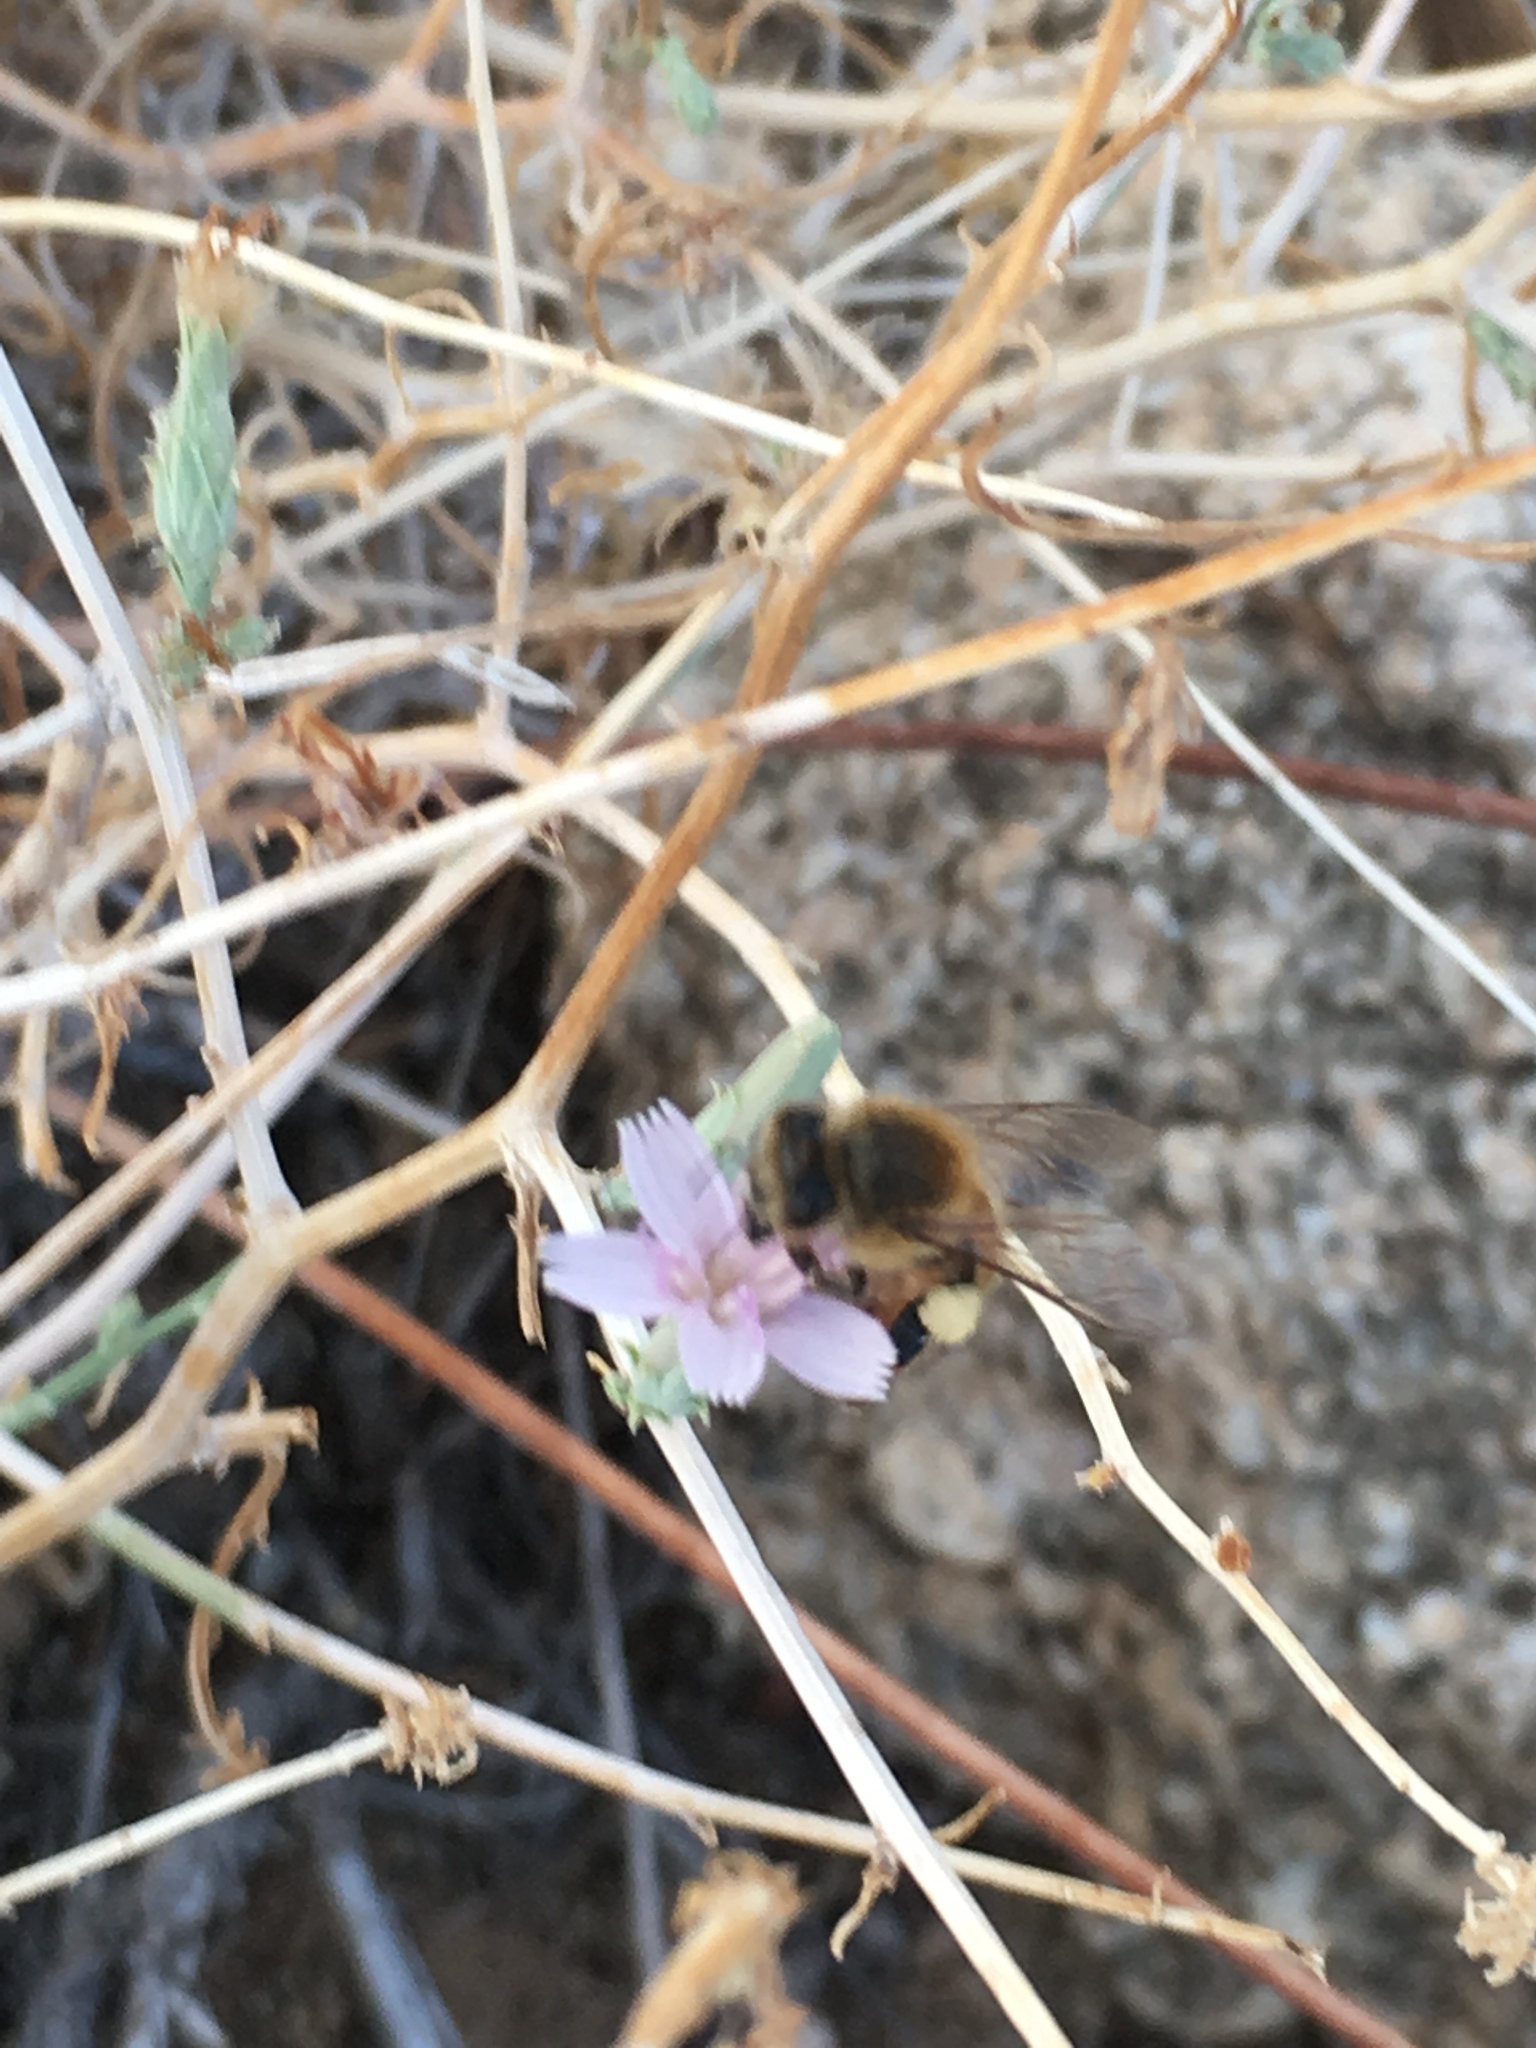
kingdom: Animalia
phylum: Arthropoda
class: Insecta
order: Hymenoptera
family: Apidae
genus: Apis
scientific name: Apis mellifera
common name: Honey bee
